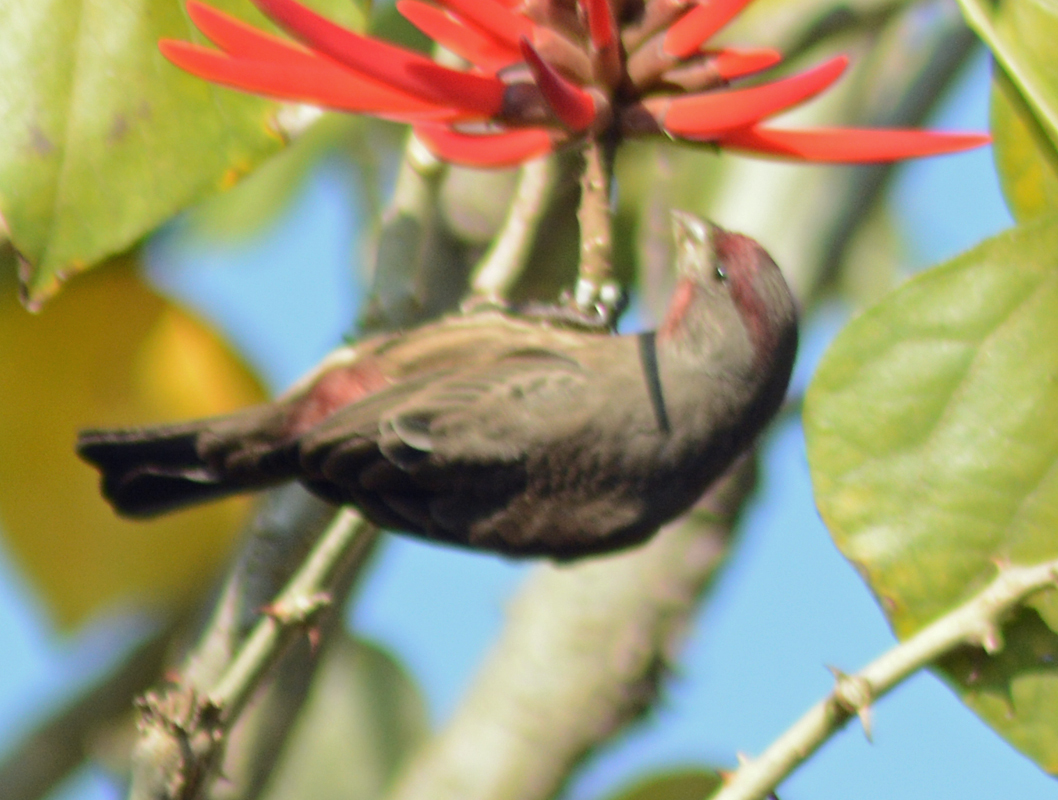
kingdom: Animalia
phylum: Chordata
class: Aves
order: Passeriformes
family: Fringillidae
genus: Haemorhous
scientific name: Haemorhous mexicanus
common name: House finch
